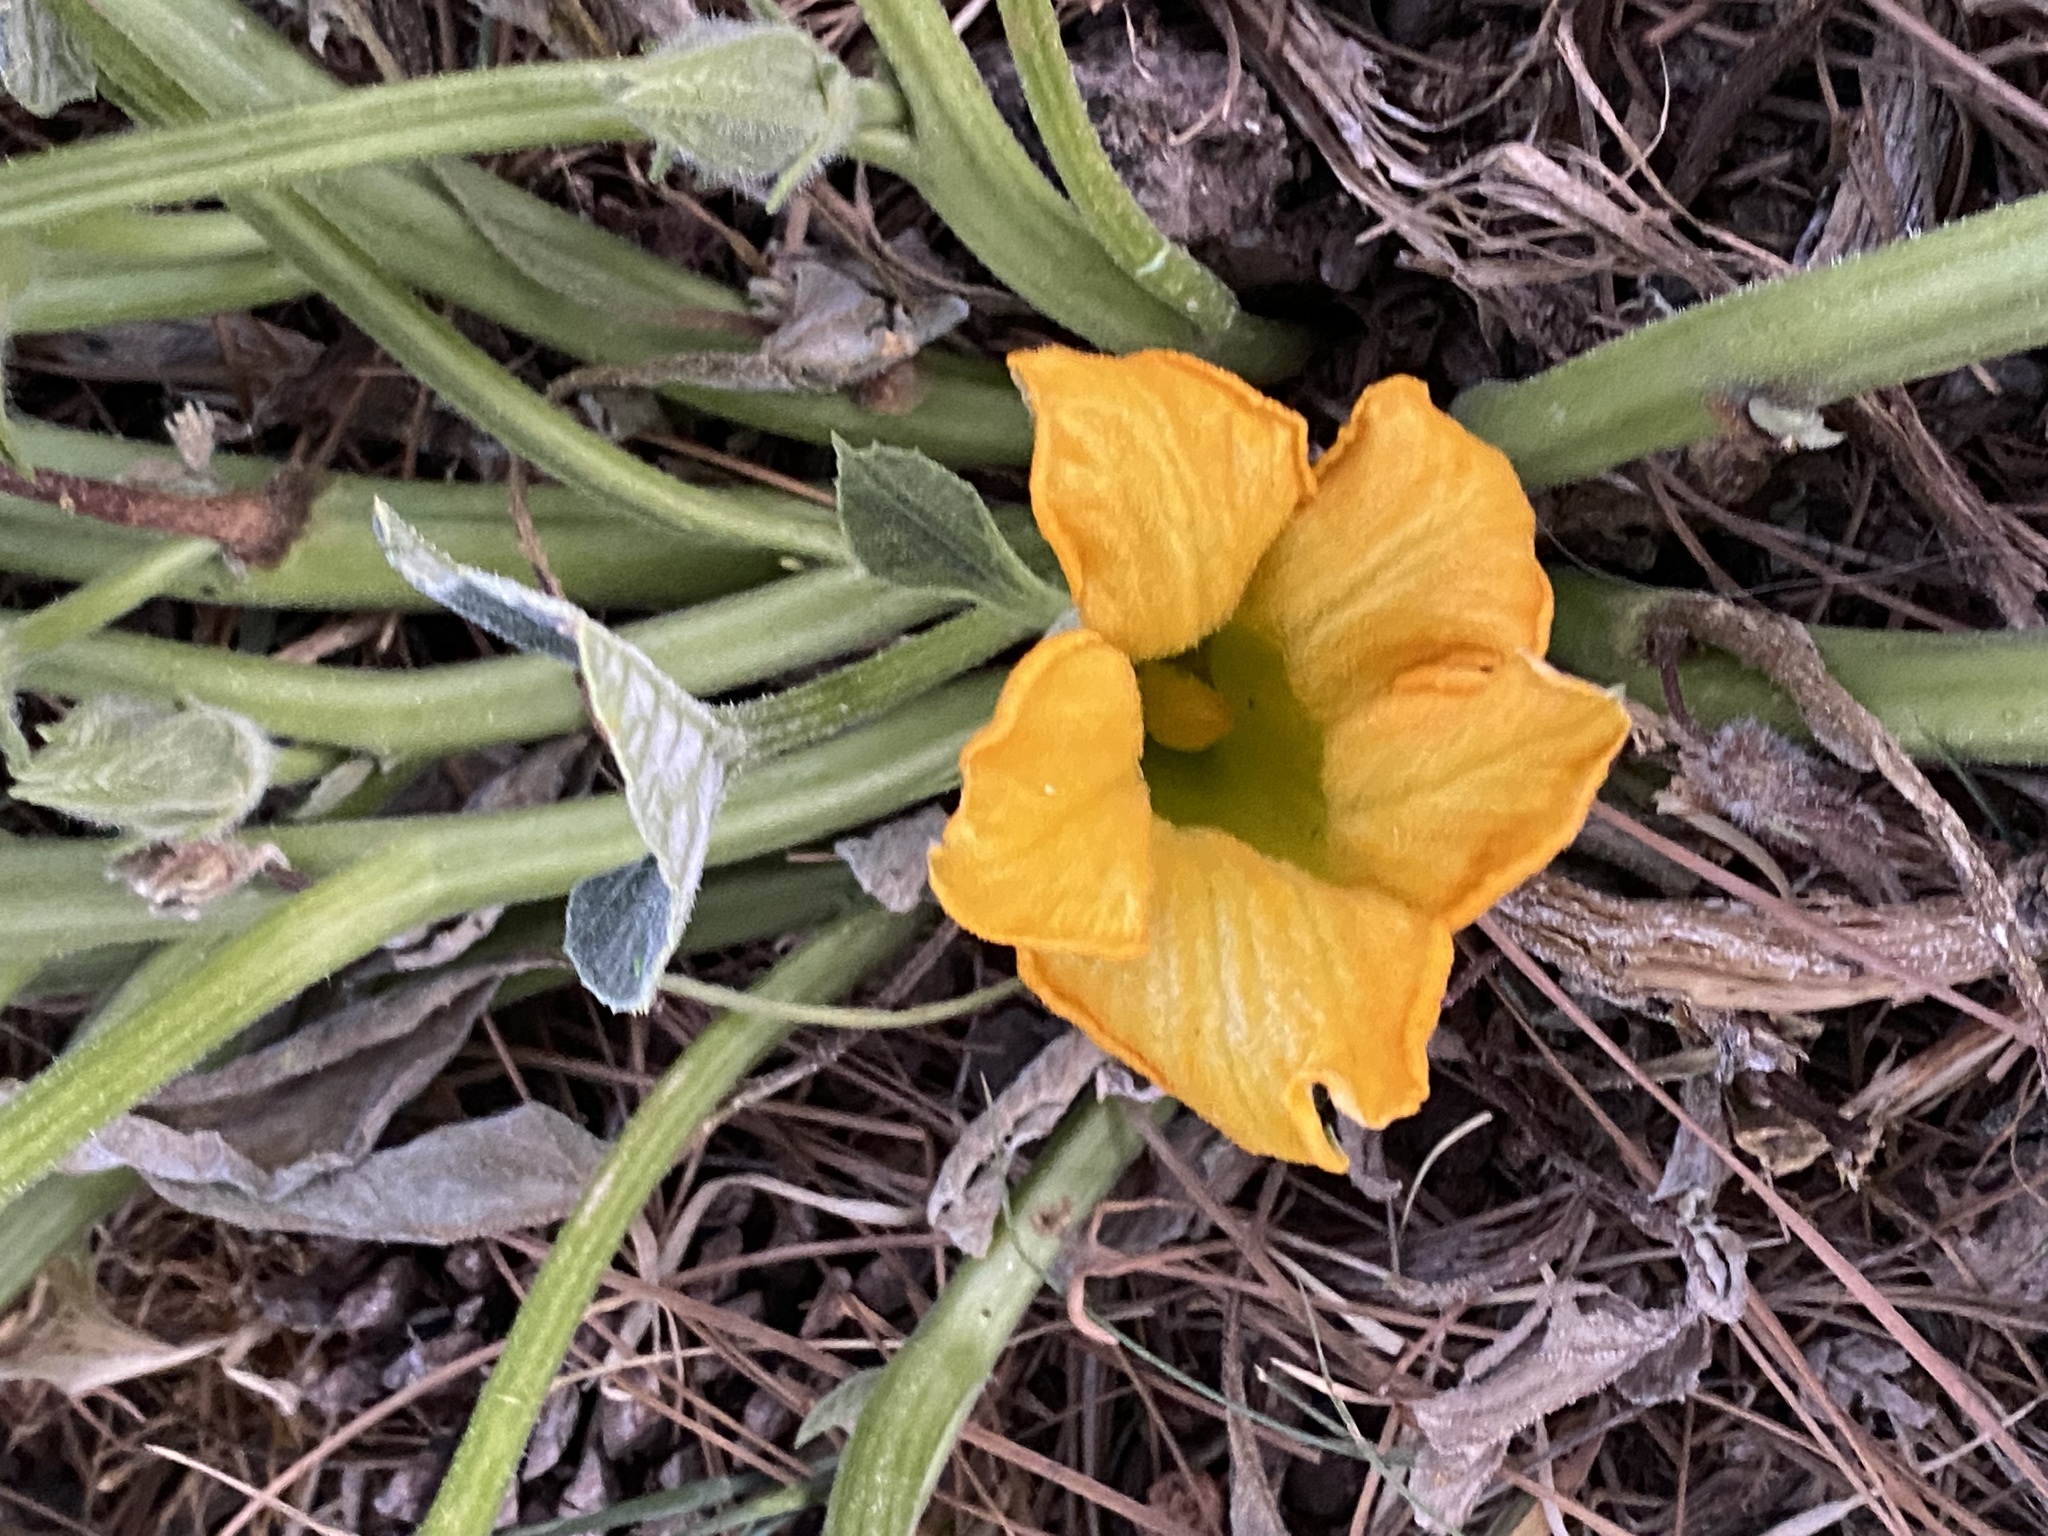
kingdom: Plantae
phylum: Tracheophyta
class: Magnoliopsida
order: Cucurbitales
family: Cucurbitaceae
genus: Cucurbita
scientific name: Cucurbita foetidissima
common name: Buffalo gourd
